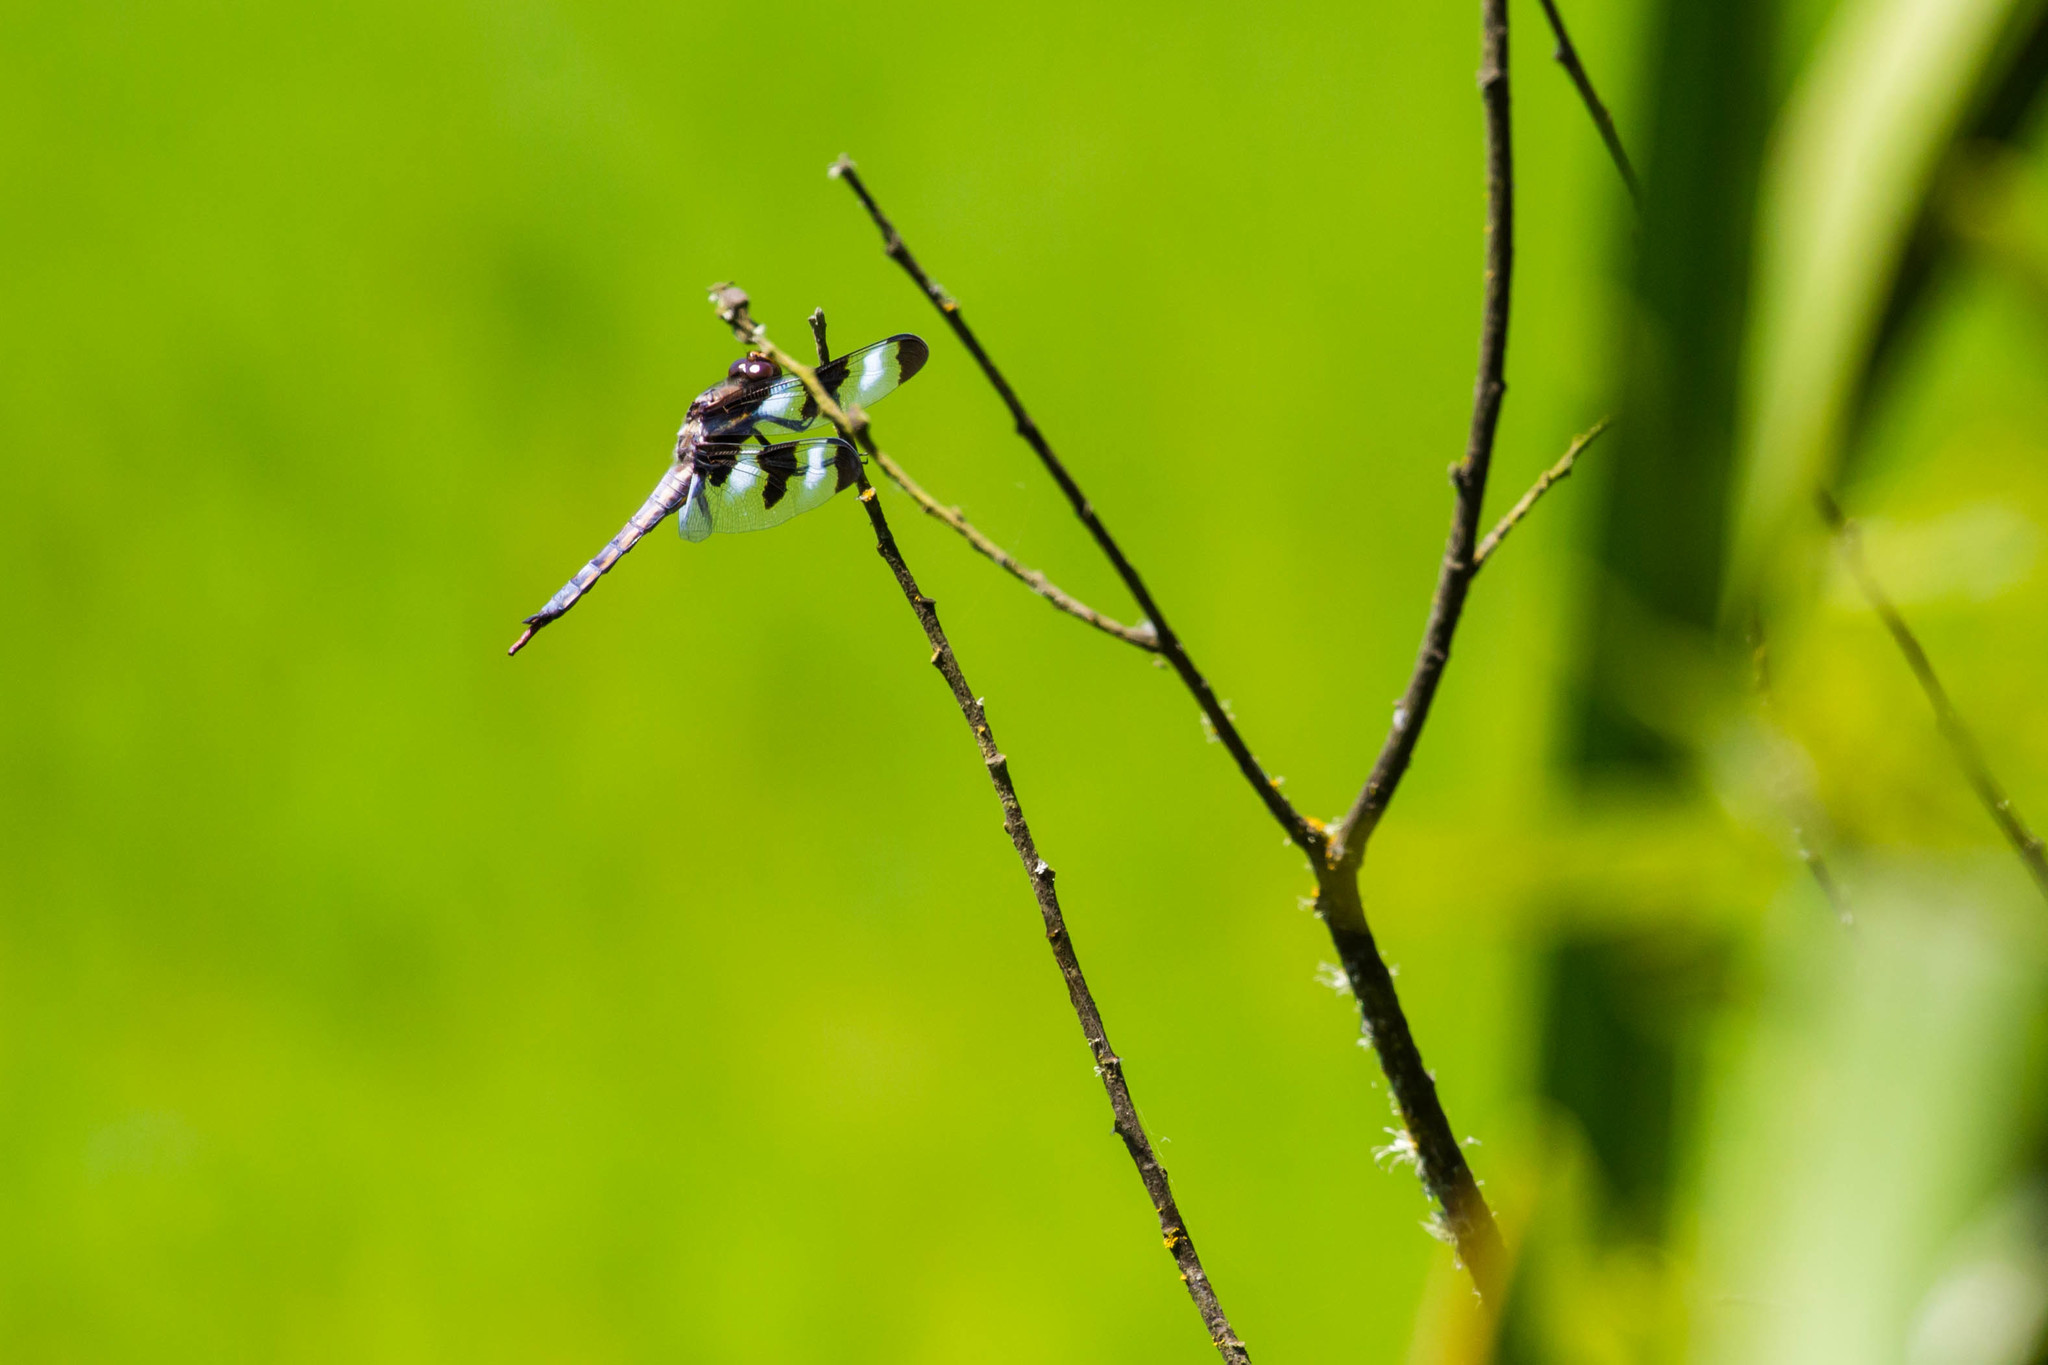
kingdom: Animalia
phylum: Arthropoda
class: Insecta
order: Odonata
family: Libellulidae
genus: Libellula
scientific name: Libellula pulchella
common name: Twelve-spotted skimmer
